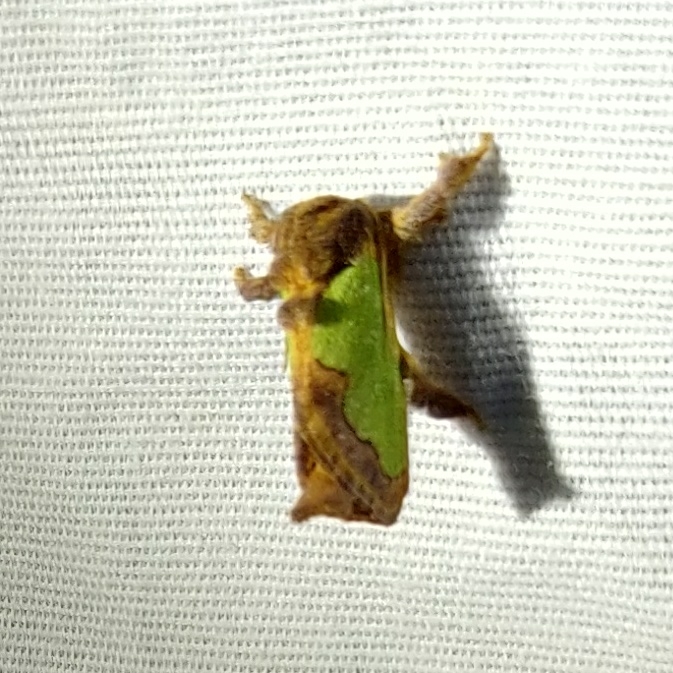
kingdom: Animalia
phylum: Arthropoda
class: Insecta
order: Lepidoptera
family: Limacodidae
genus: Euclea
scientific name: Euclea incisa
